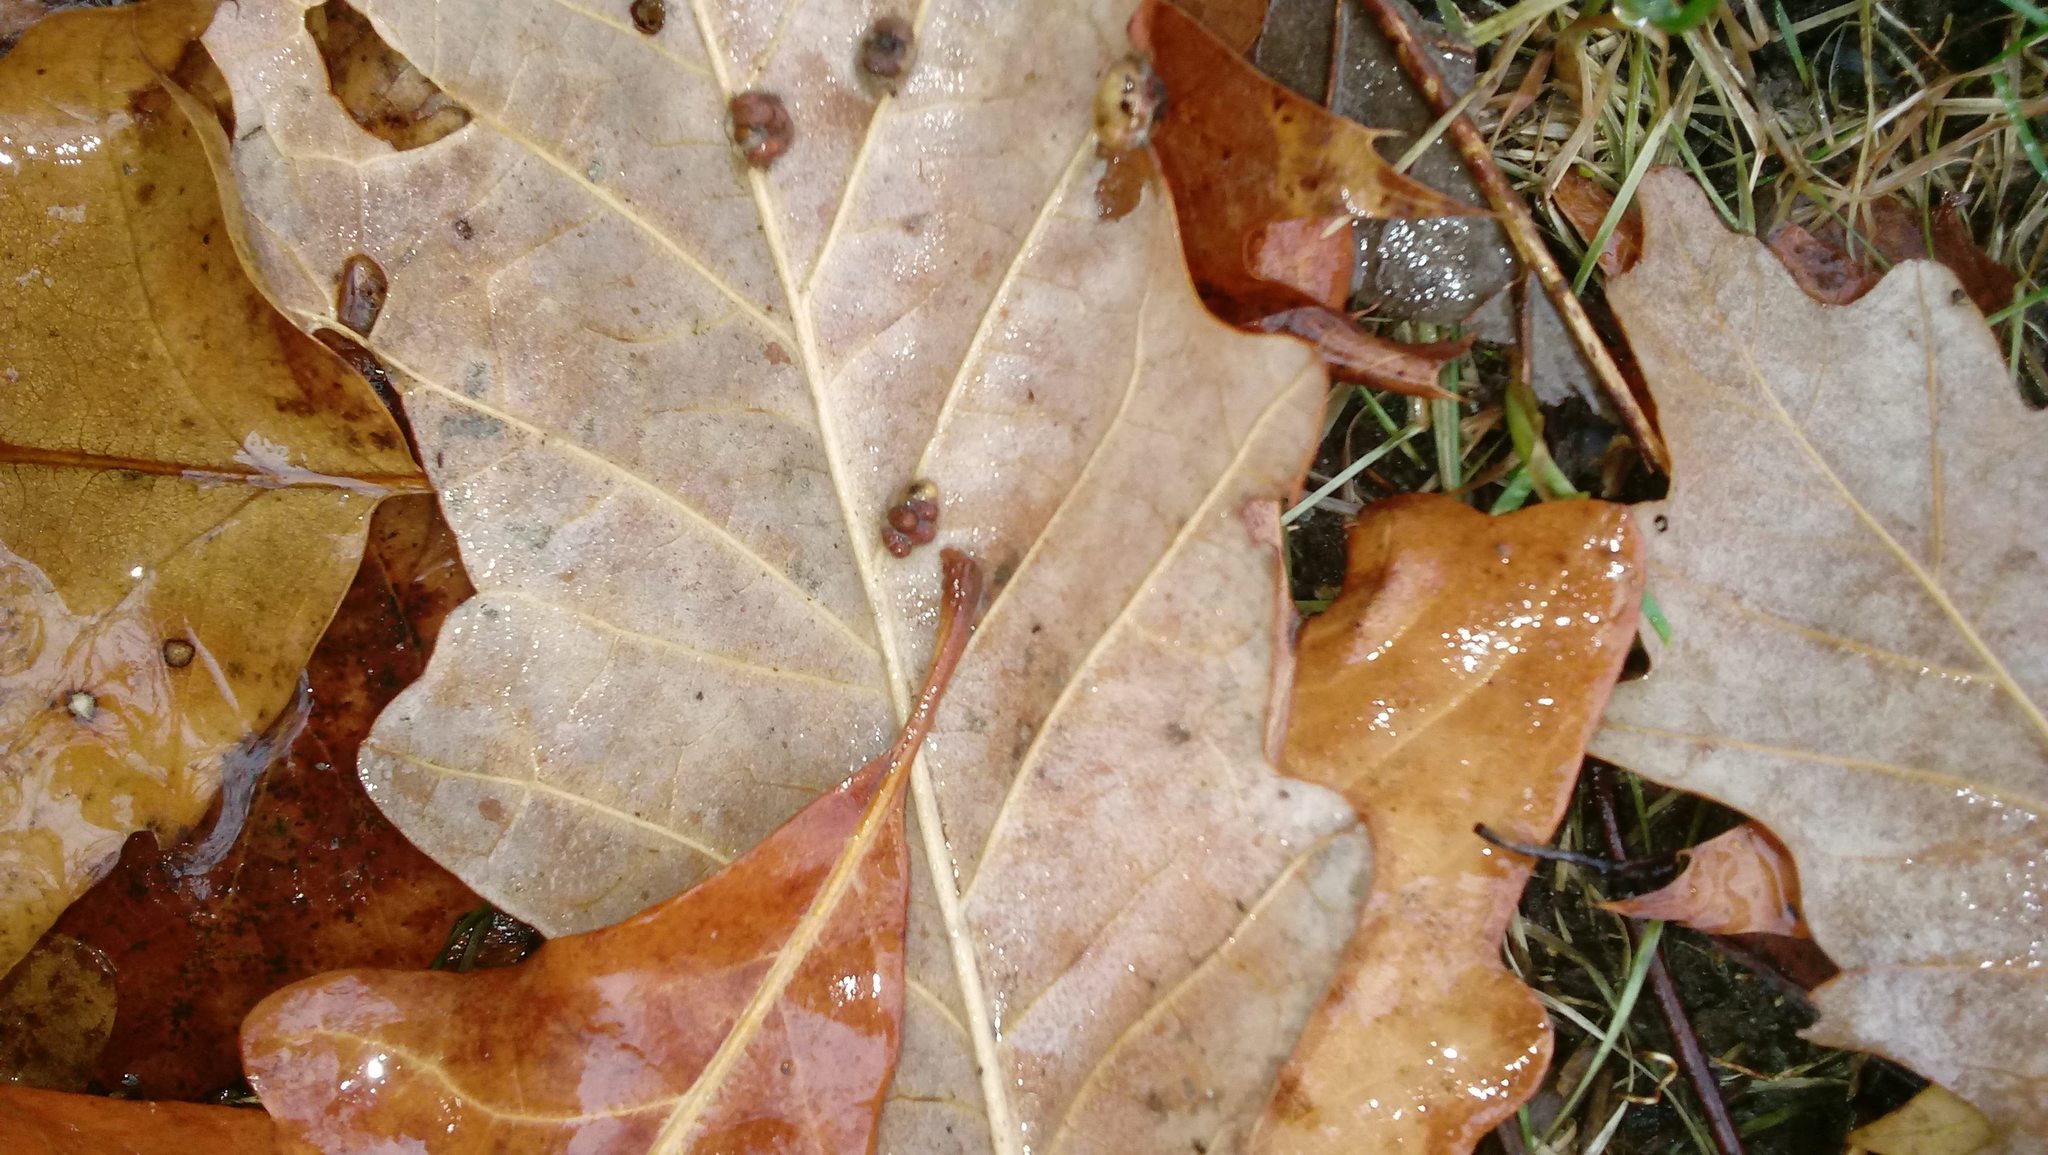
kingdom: Animalia
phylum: Arthropoda
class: Insecta
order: Hymenoptera
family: Cynipidae
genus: Andricus
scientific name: Andricus Druon ignotum
